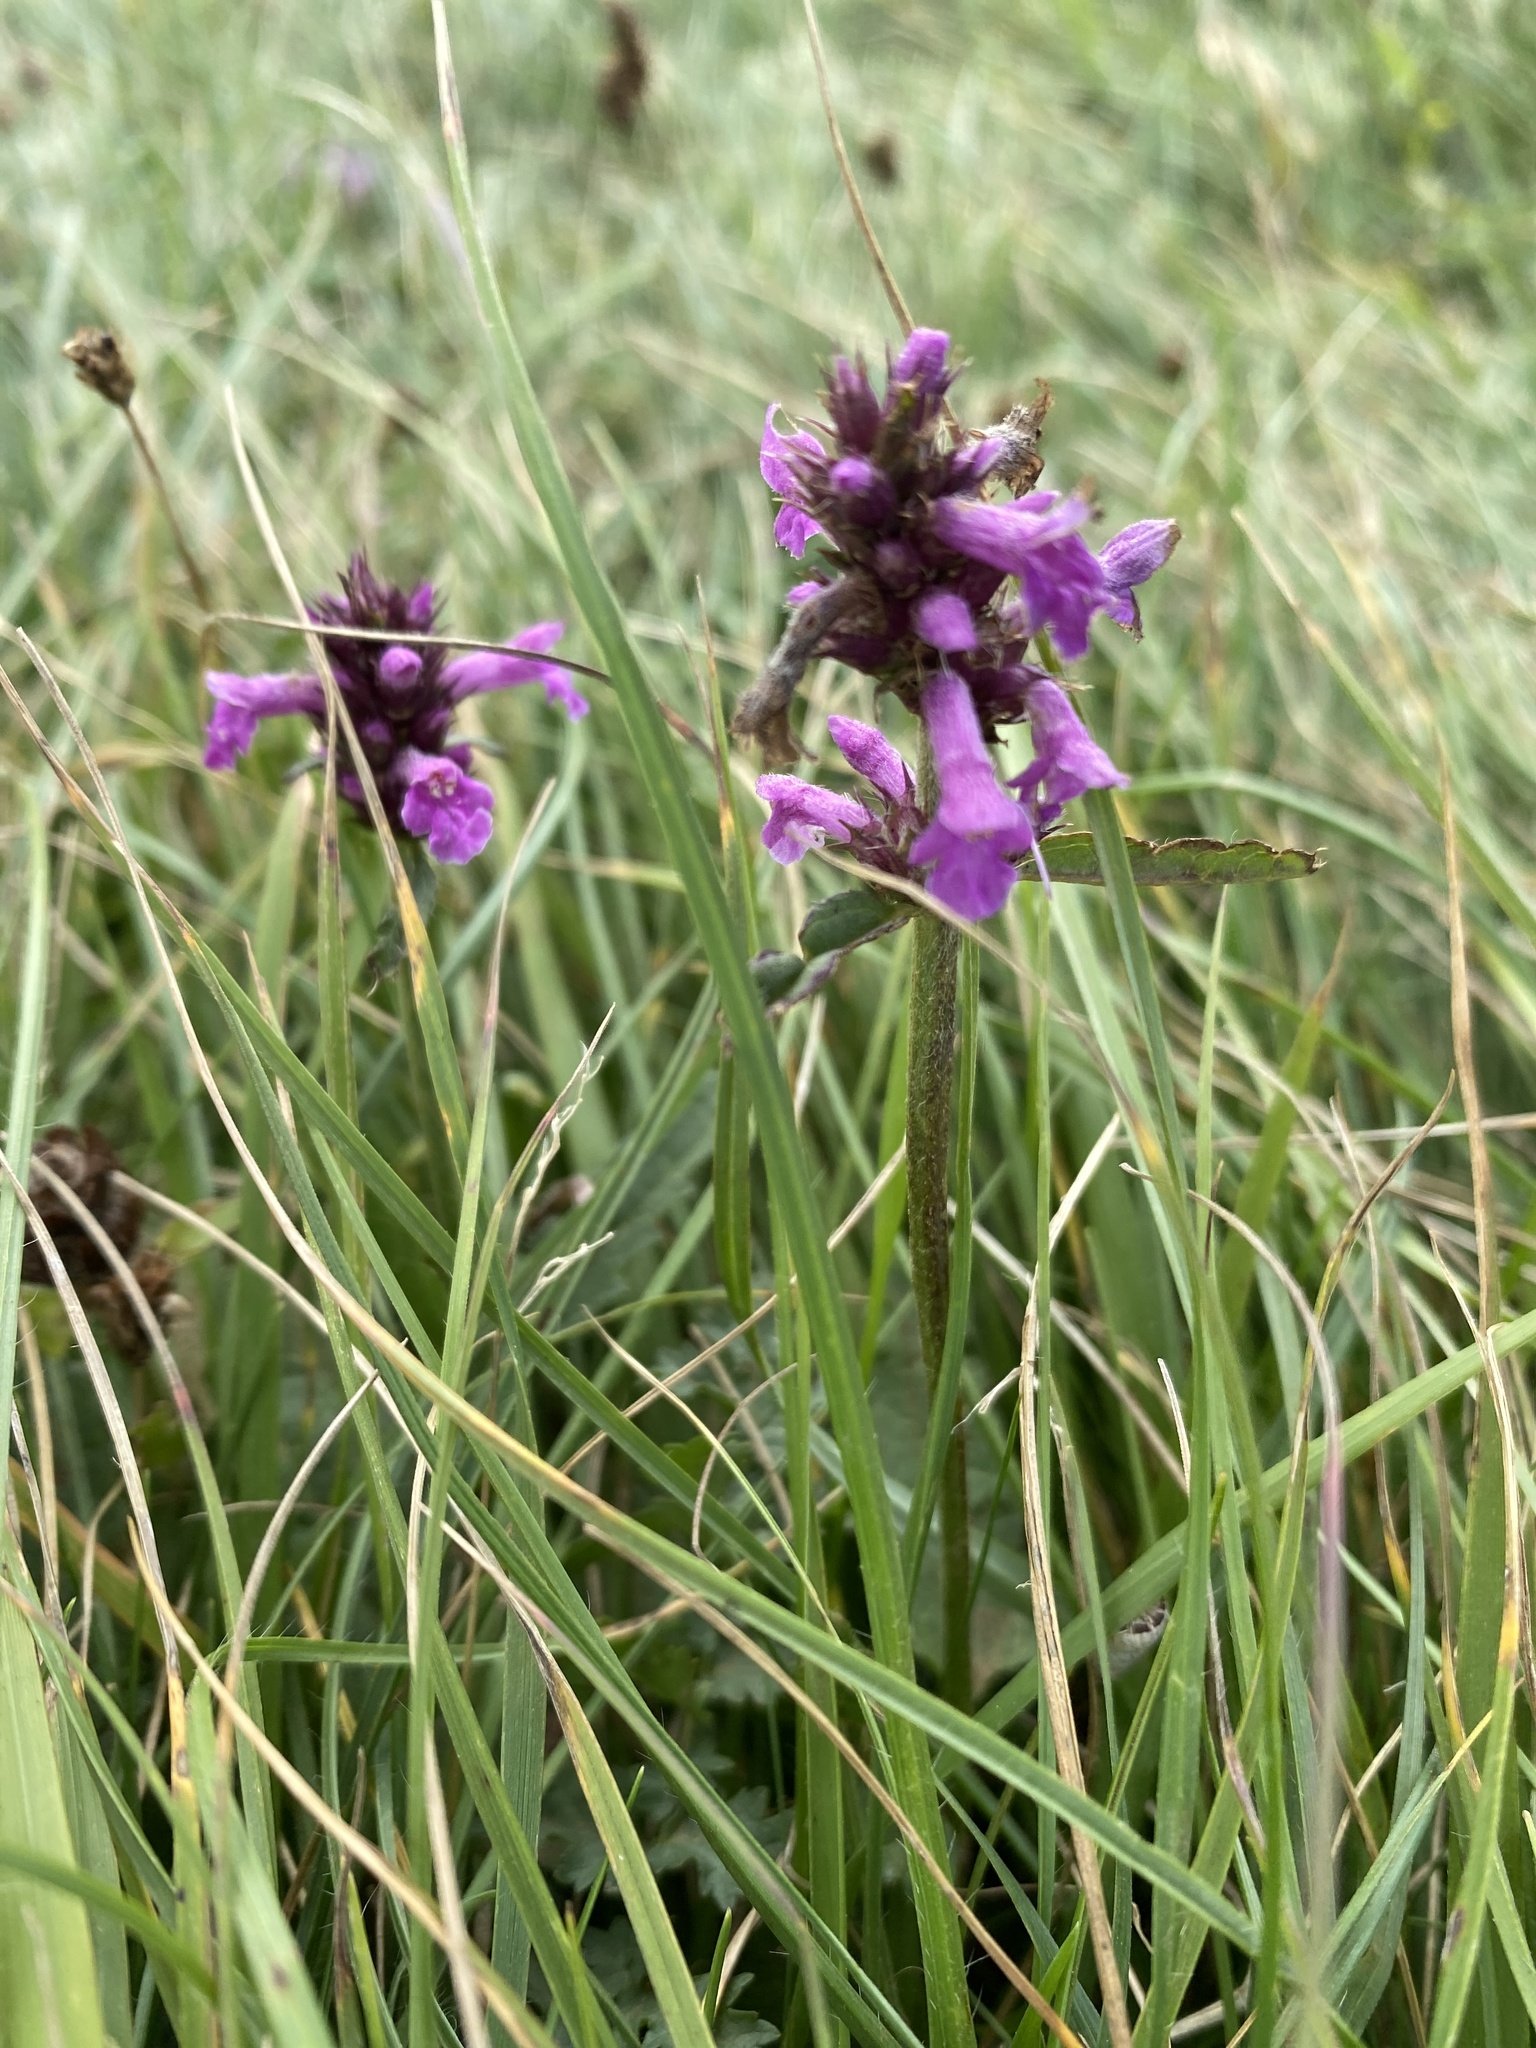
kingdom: Plantae
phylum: Tracheophyta
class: Magnoliopsida
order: Lamiales
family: Lamiaceae
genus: Betonica
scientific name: Betonica officinalis
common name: Bishop's-wort
